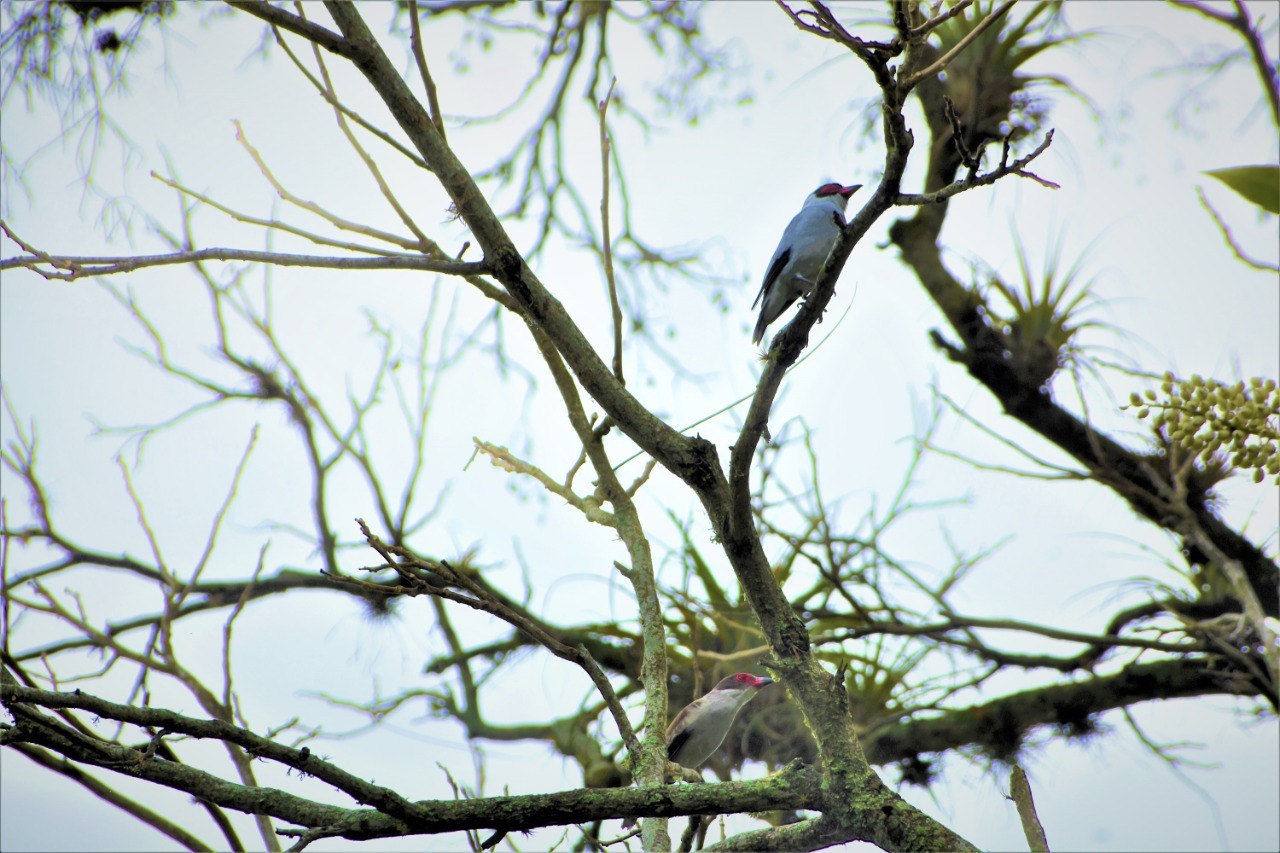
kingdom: Animalia
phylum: Chordata
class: Aves
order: Passeriformes
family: Cotingidae
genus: Tityra
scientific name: Tityra semifasciata
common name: Masked tityra
